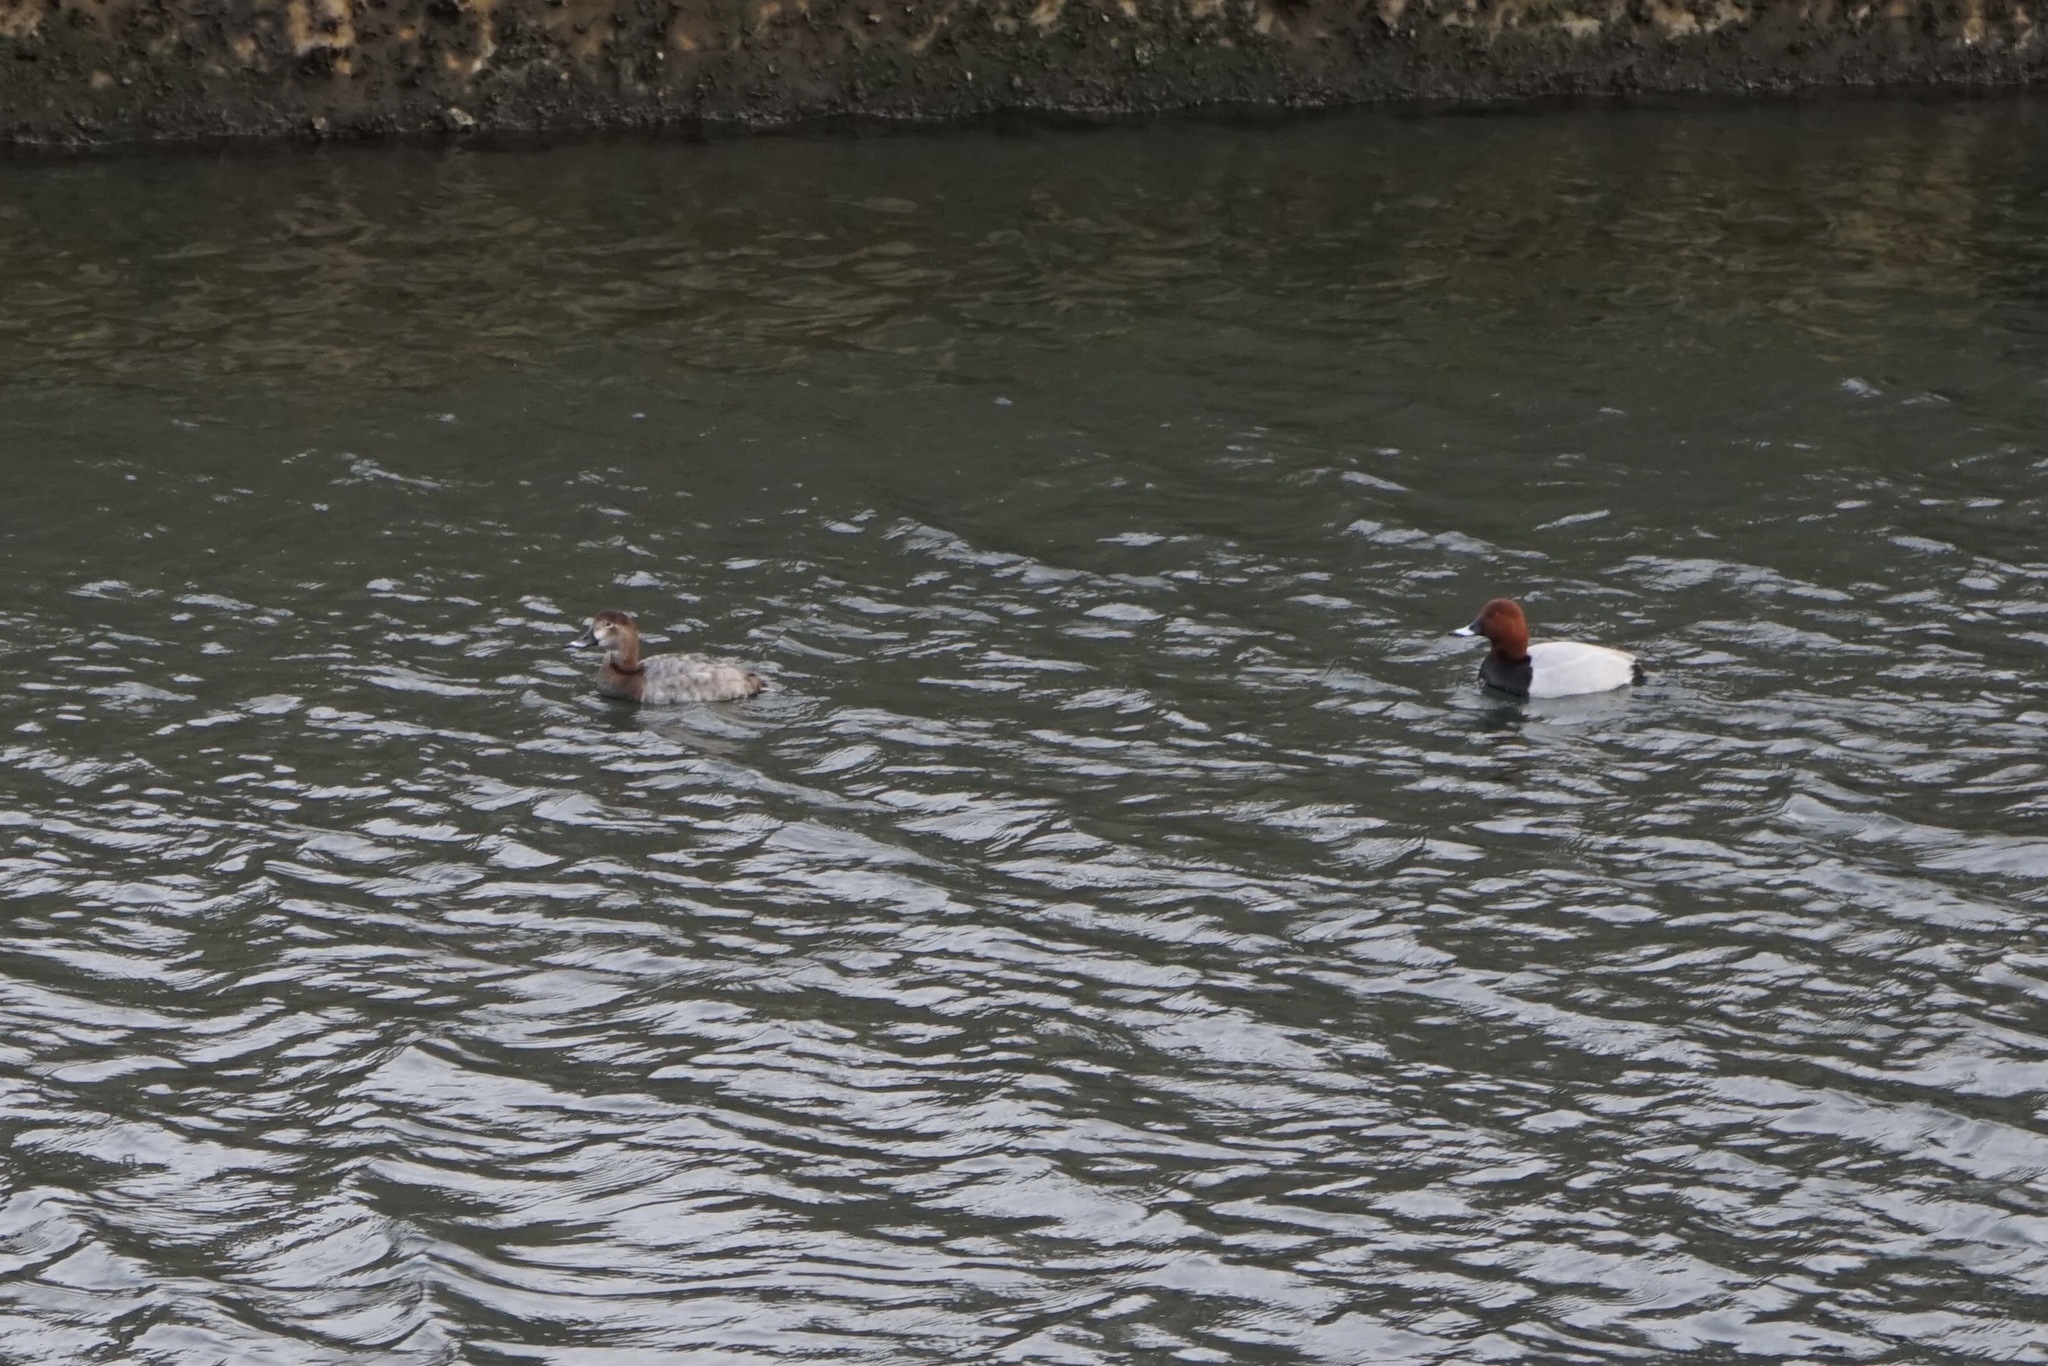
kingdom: Animalia
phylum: Chordata
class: Aves
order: Anseriformes
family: Anatidae
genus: Aythya
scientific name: Aythya ferina
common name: Common pochard
